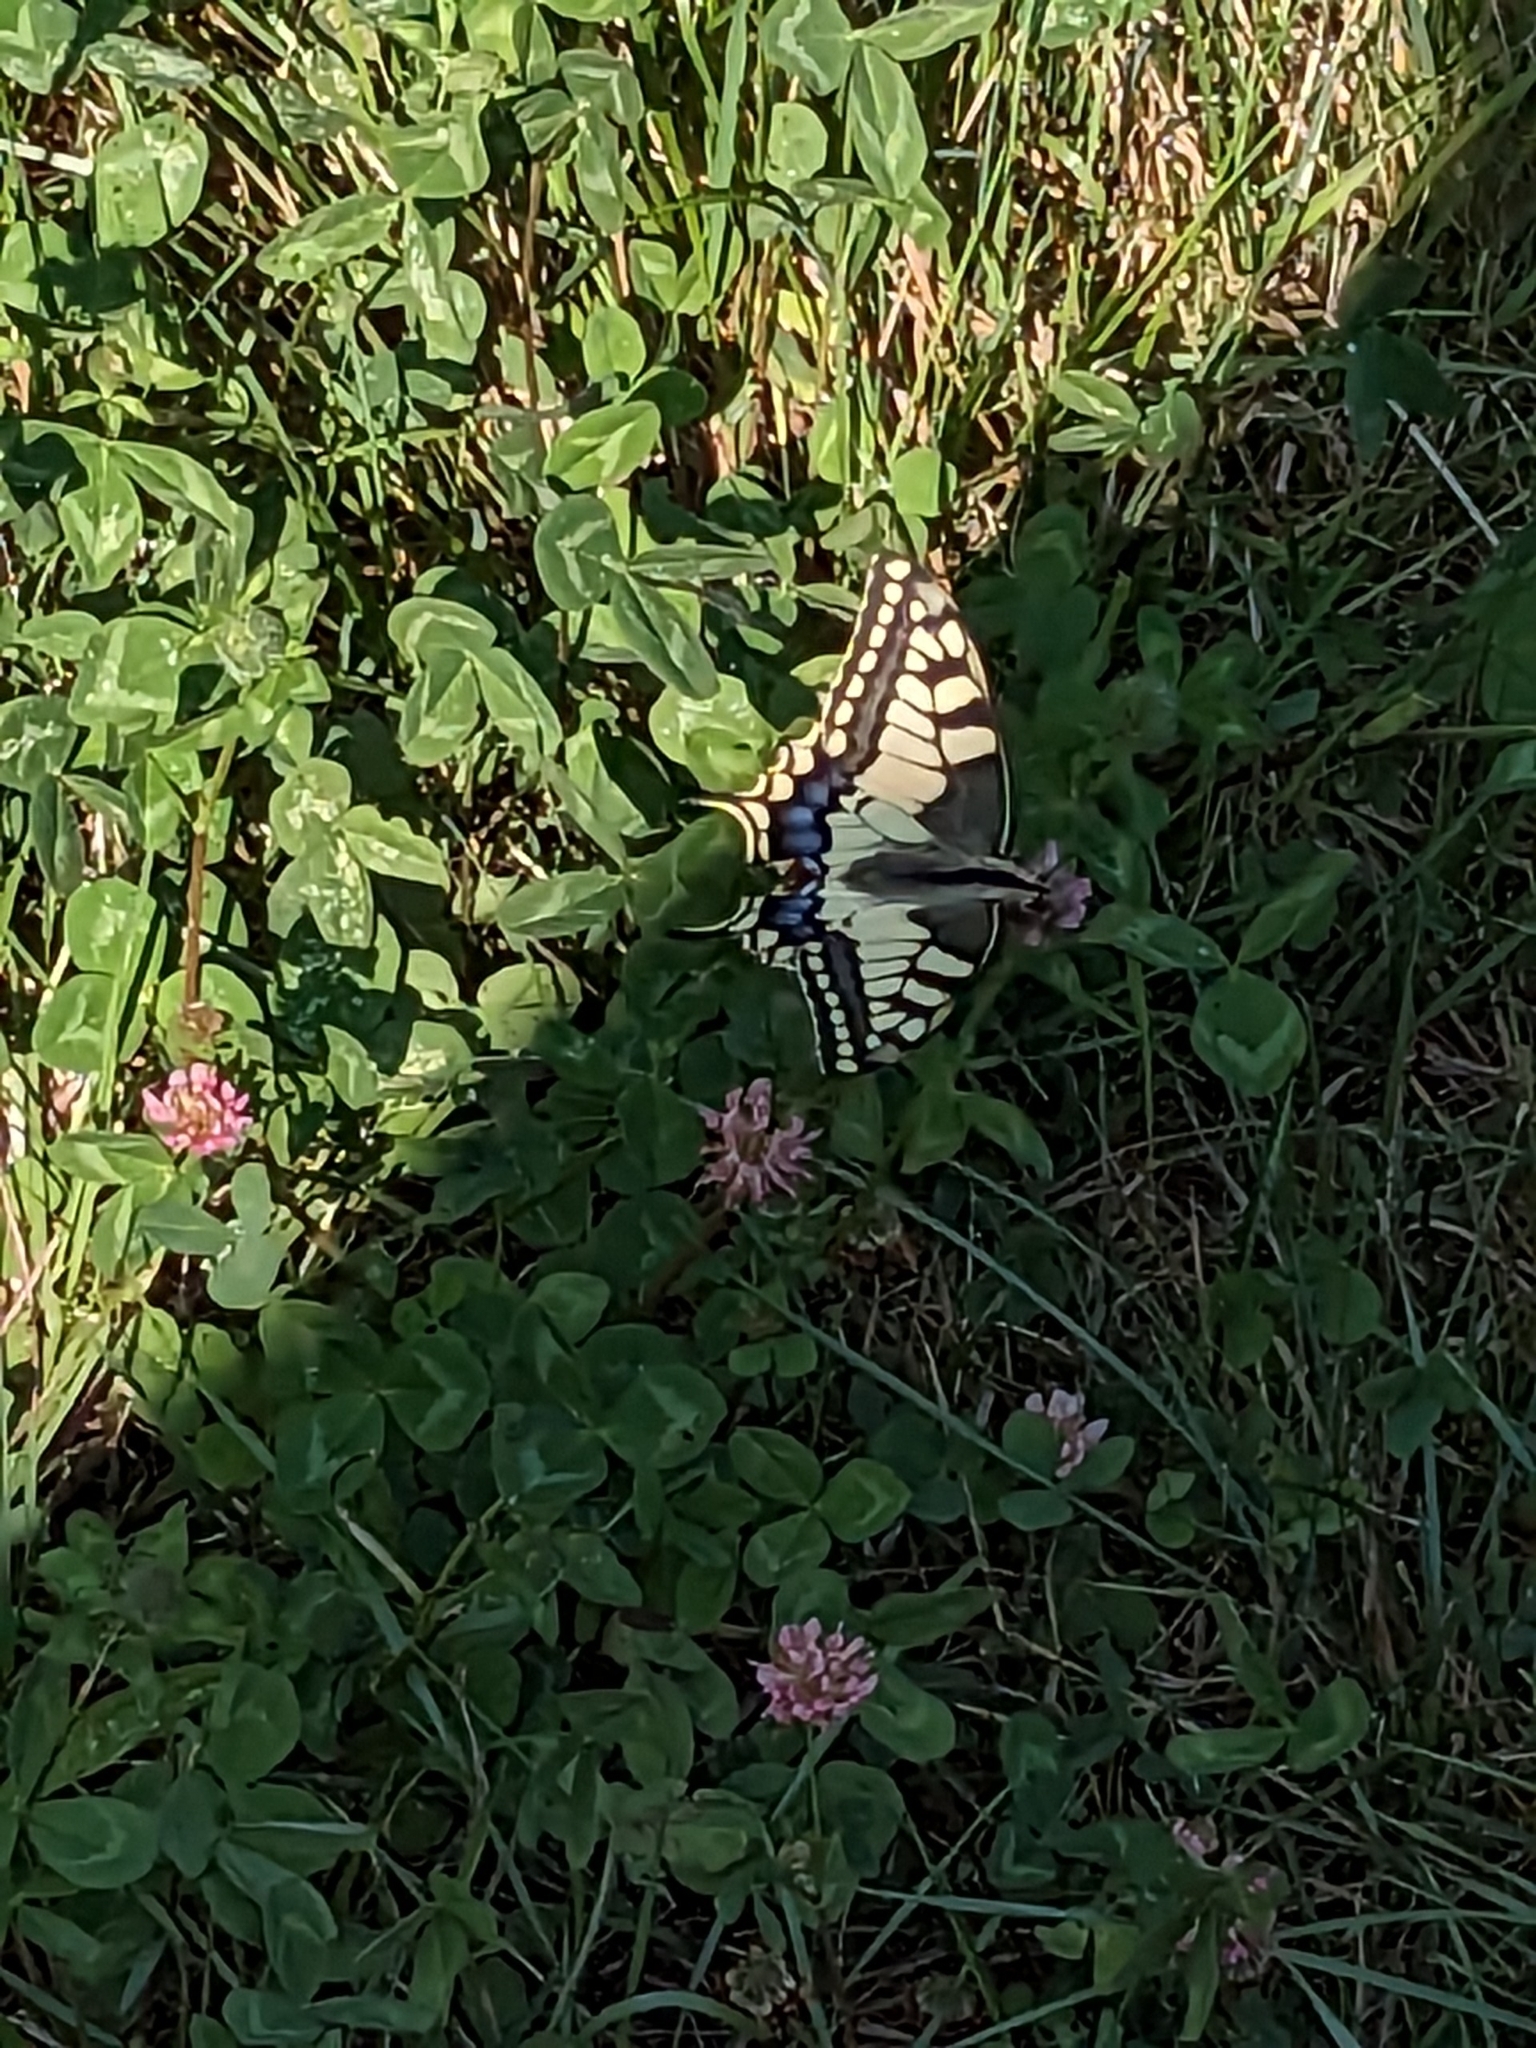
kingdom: Animalia
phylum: Arthropoda
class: Insecta
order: Lepidoptera
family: Papilionidae
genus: Papilio
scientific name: Papilio machaon
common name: Swallowtail
